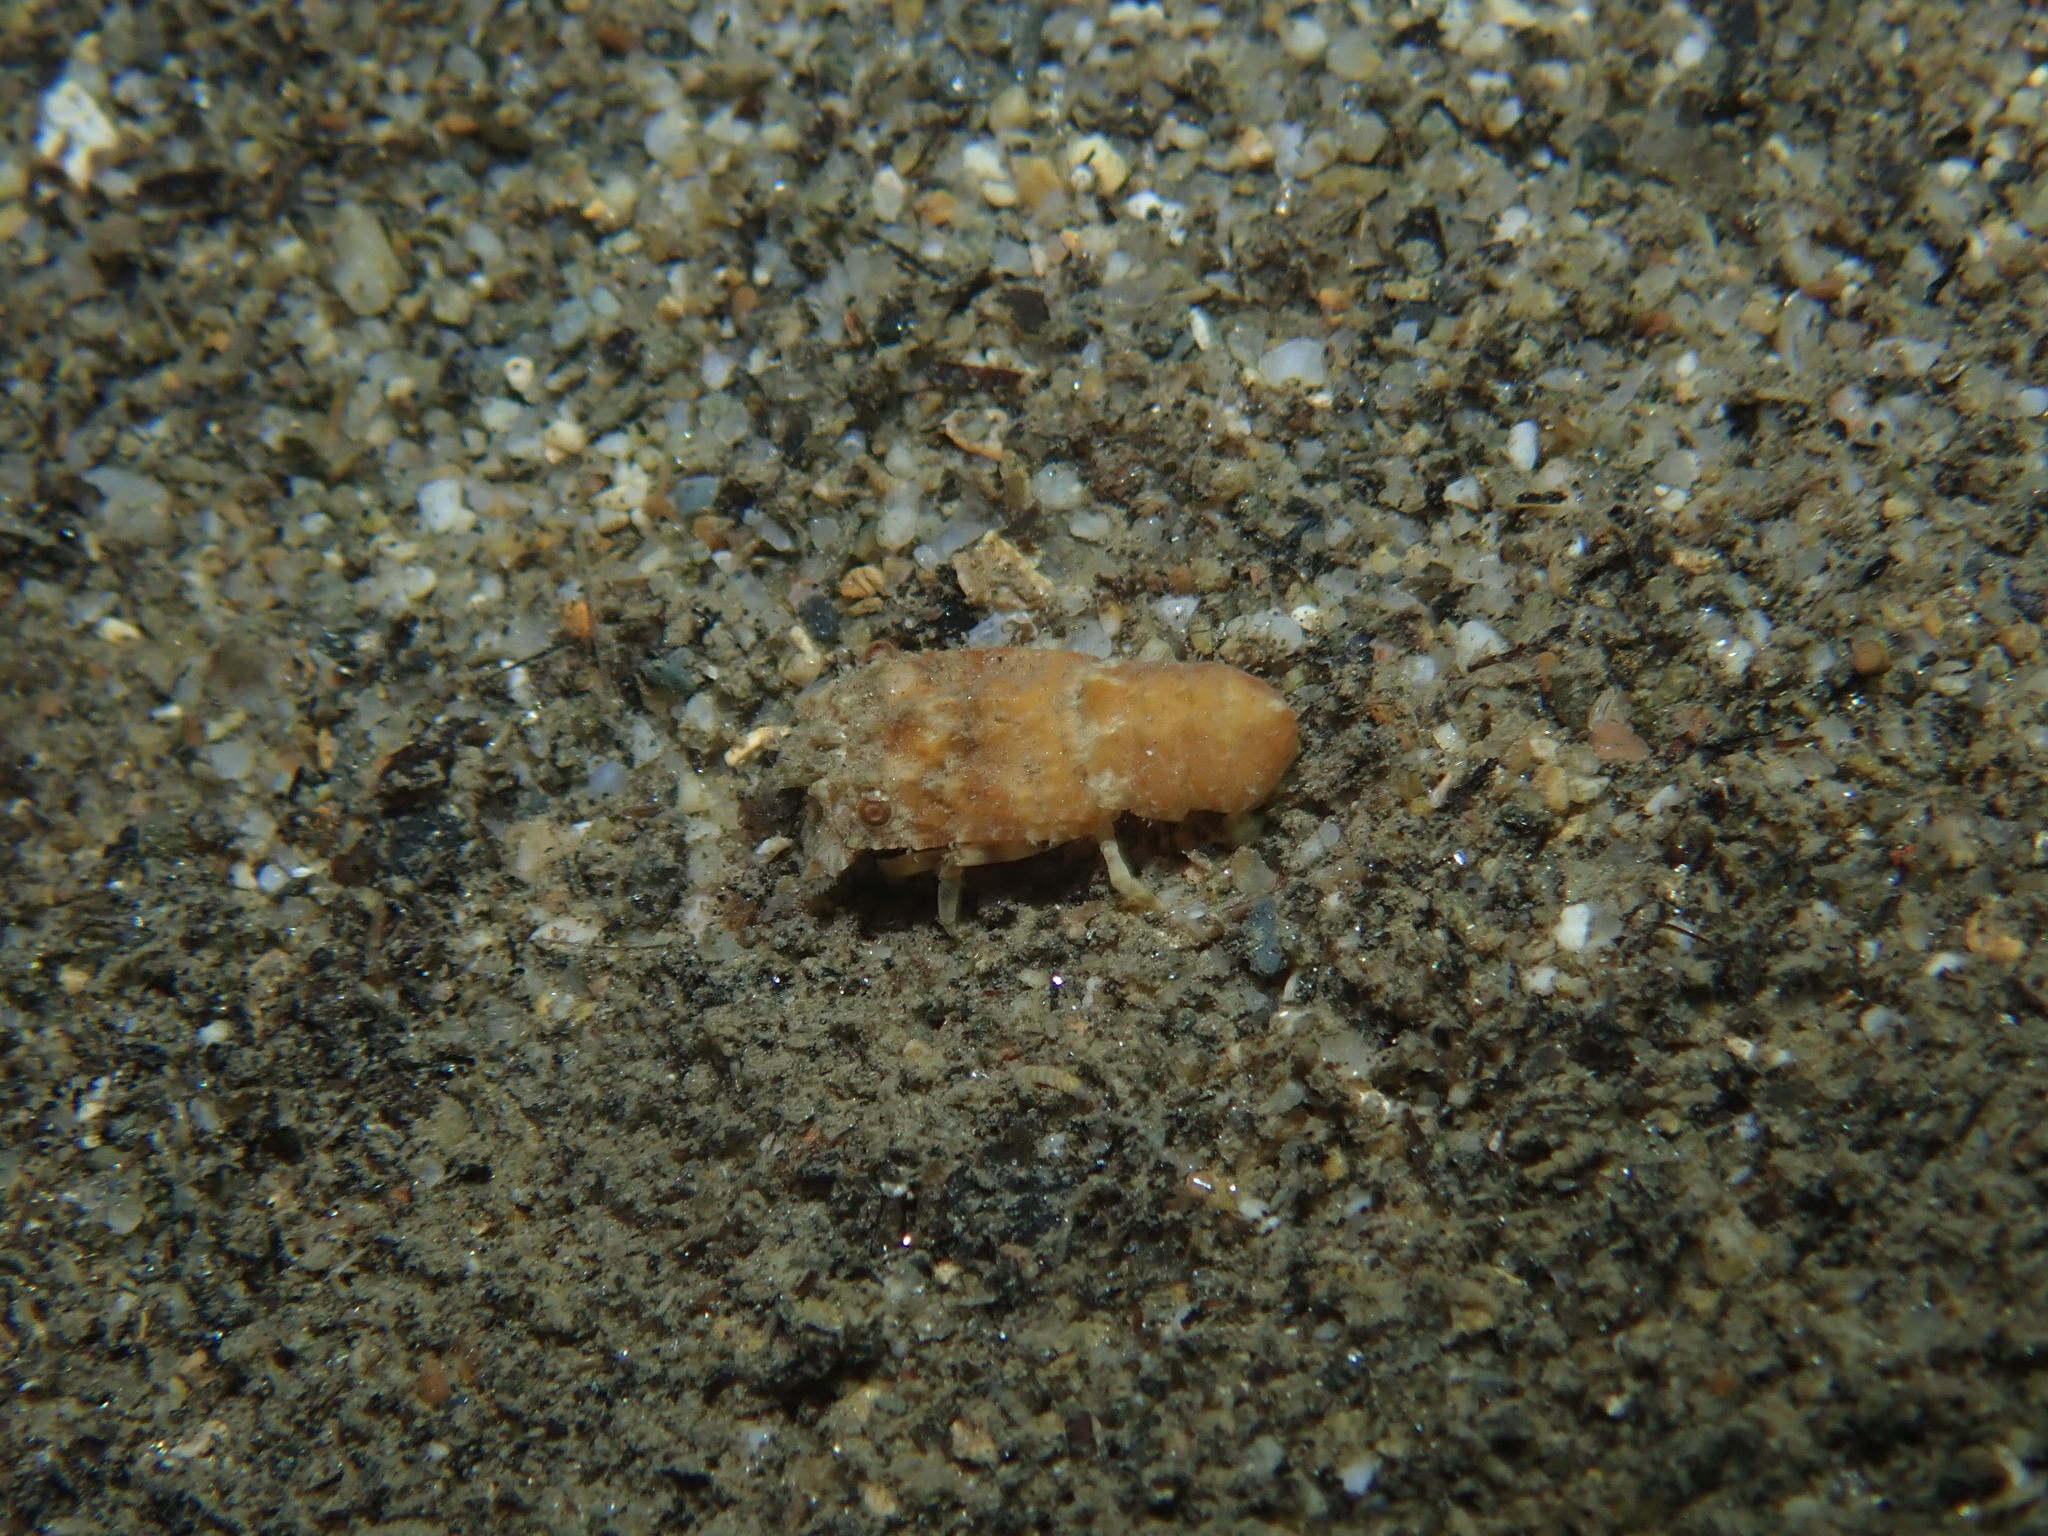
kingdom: Animalia
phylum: Arthropoda
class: Malacostraca
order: Decapoda
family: Scyllaridae
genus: Scyllarus
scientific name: Scyllarus arctus
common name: Small european locust lobster
